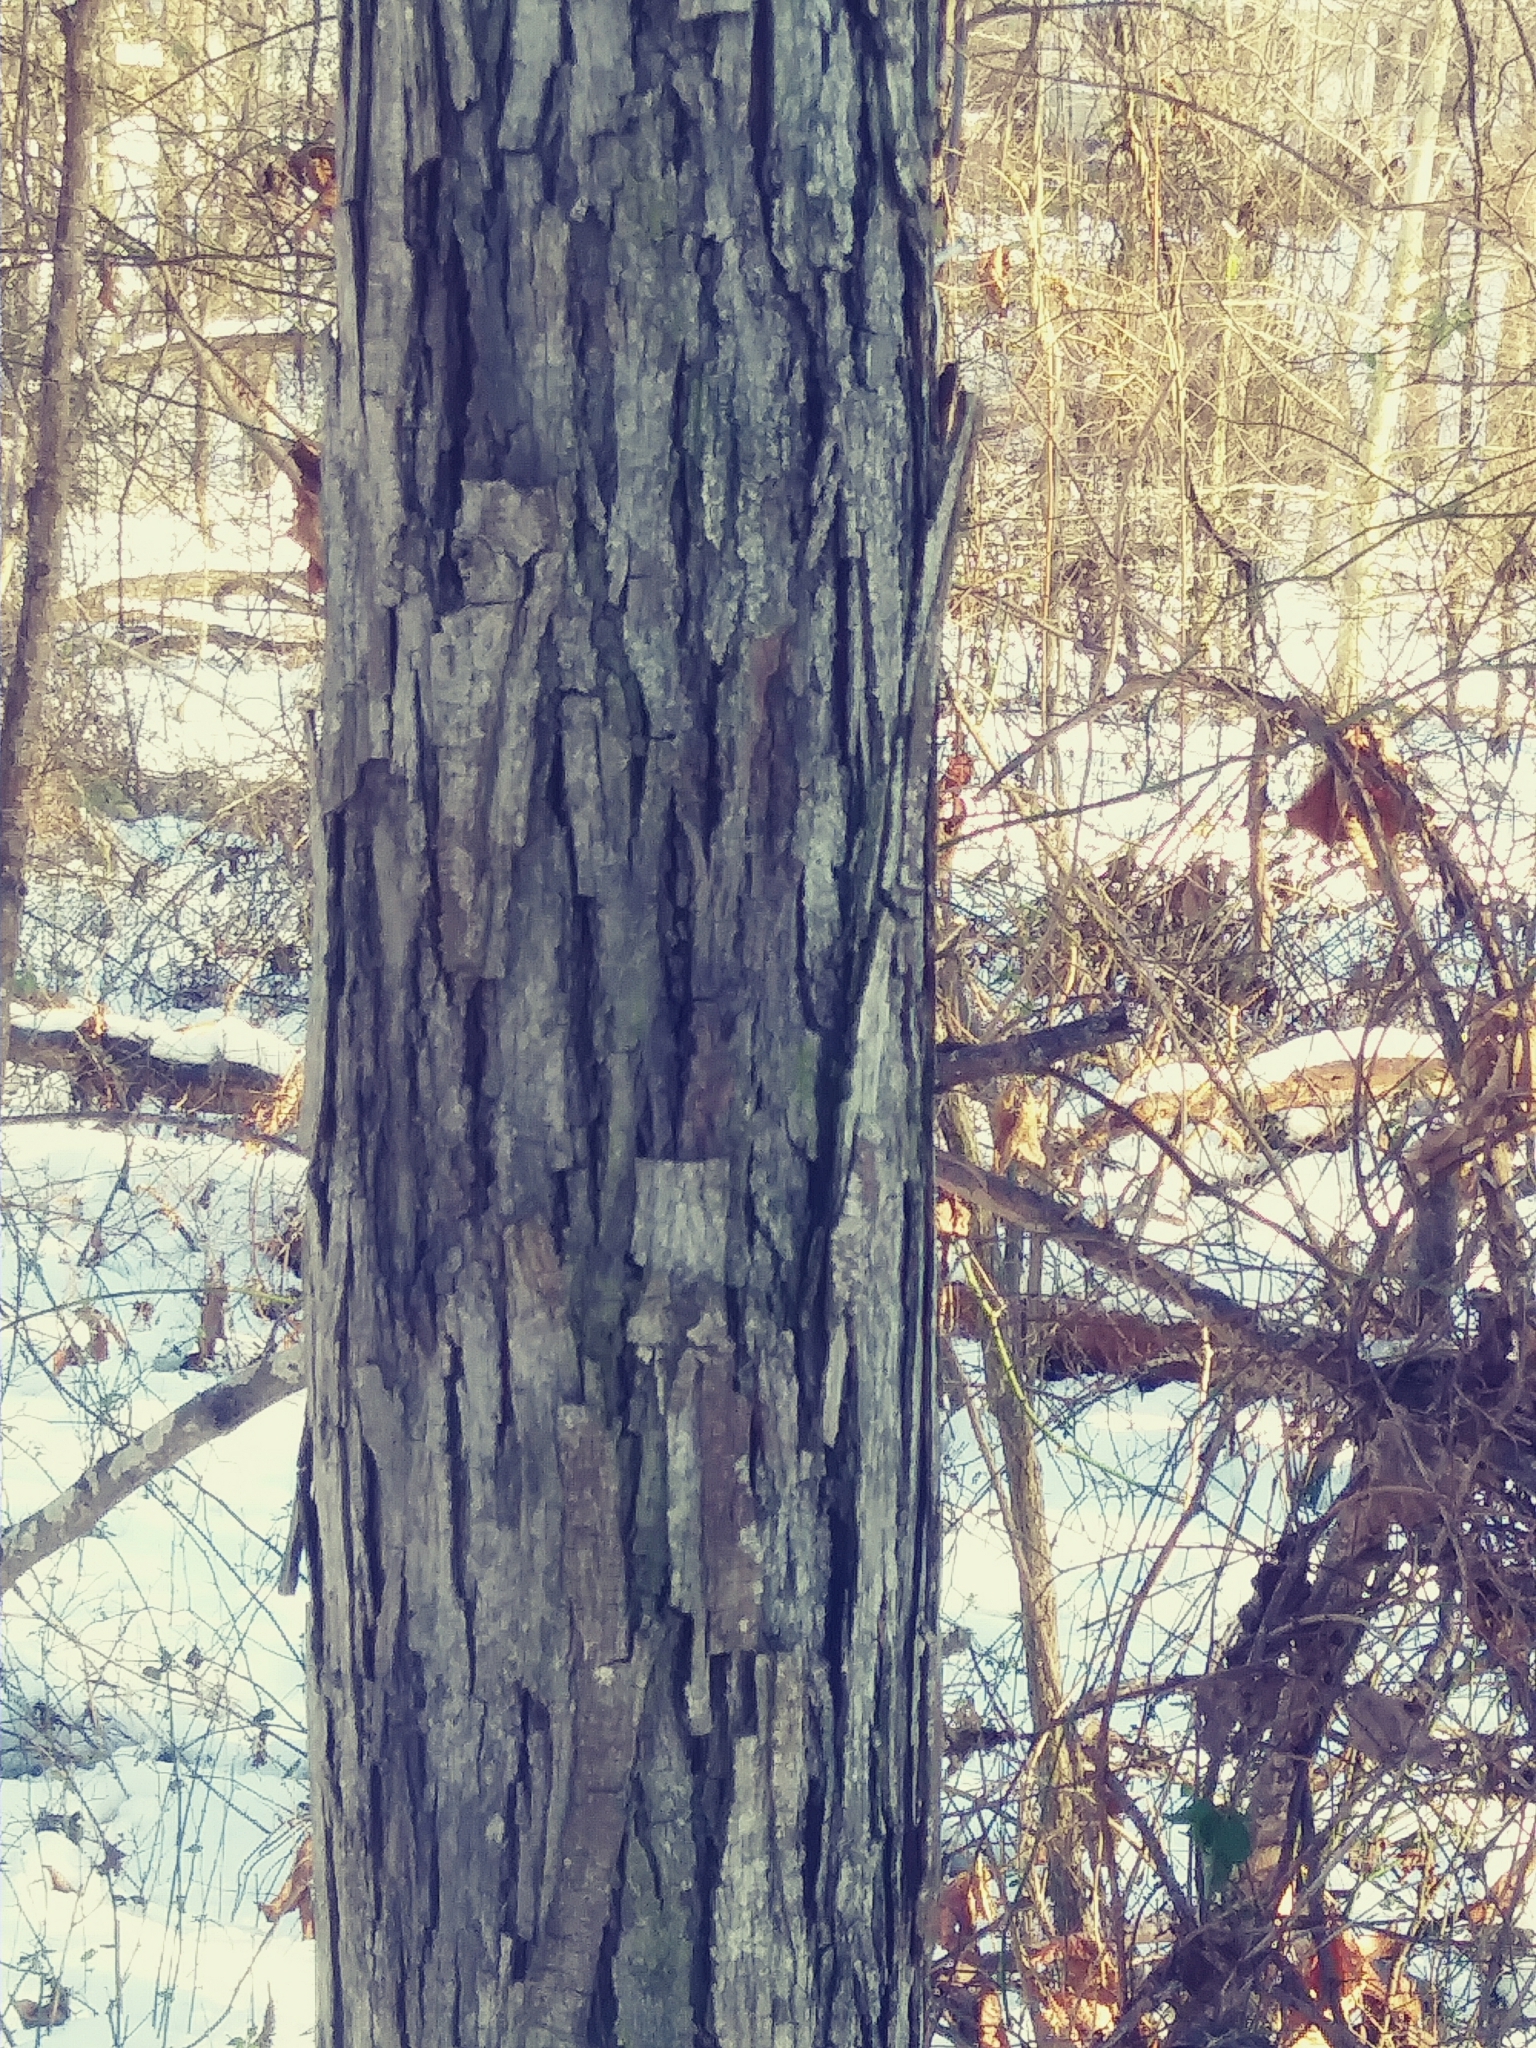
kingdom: Plantae
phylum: Tracheophyta
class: Magnoliopsida
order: Fagales
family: Juglandaceae
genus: Carya
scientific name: Carya ovata
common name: Shagbark hickory
